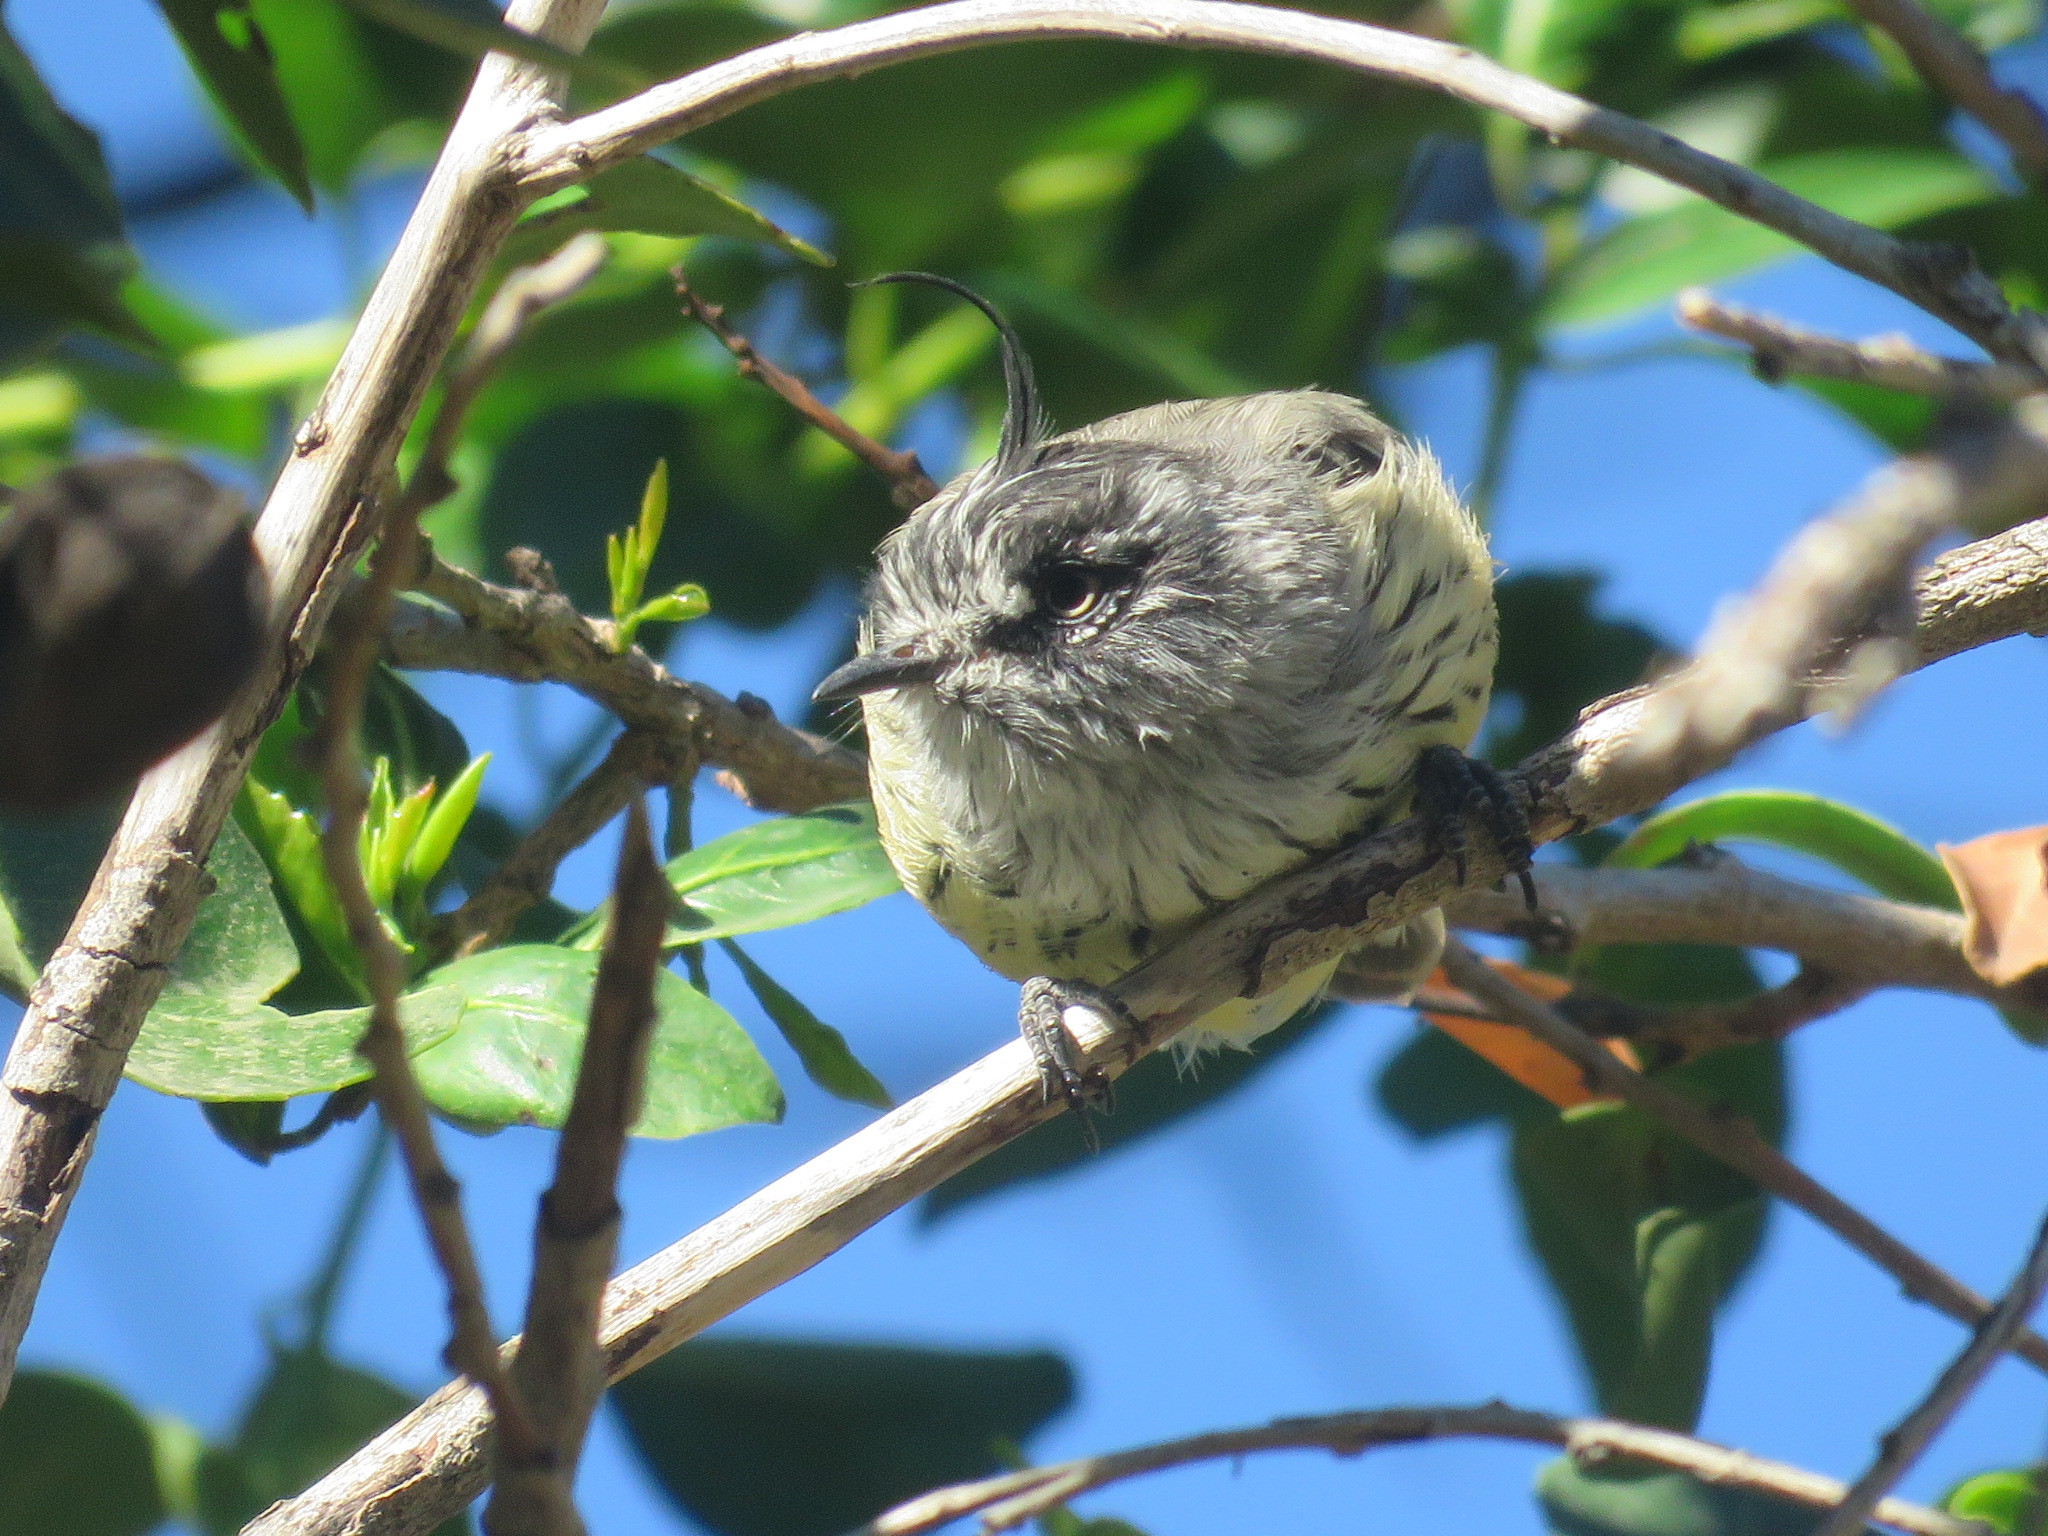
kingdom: Animalia
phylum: Chordata
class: Aves
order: Passeriformes
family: Tyrannidae
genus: Anairetes
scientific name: Anairetes parulus
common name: Tufted tit-tyrant
